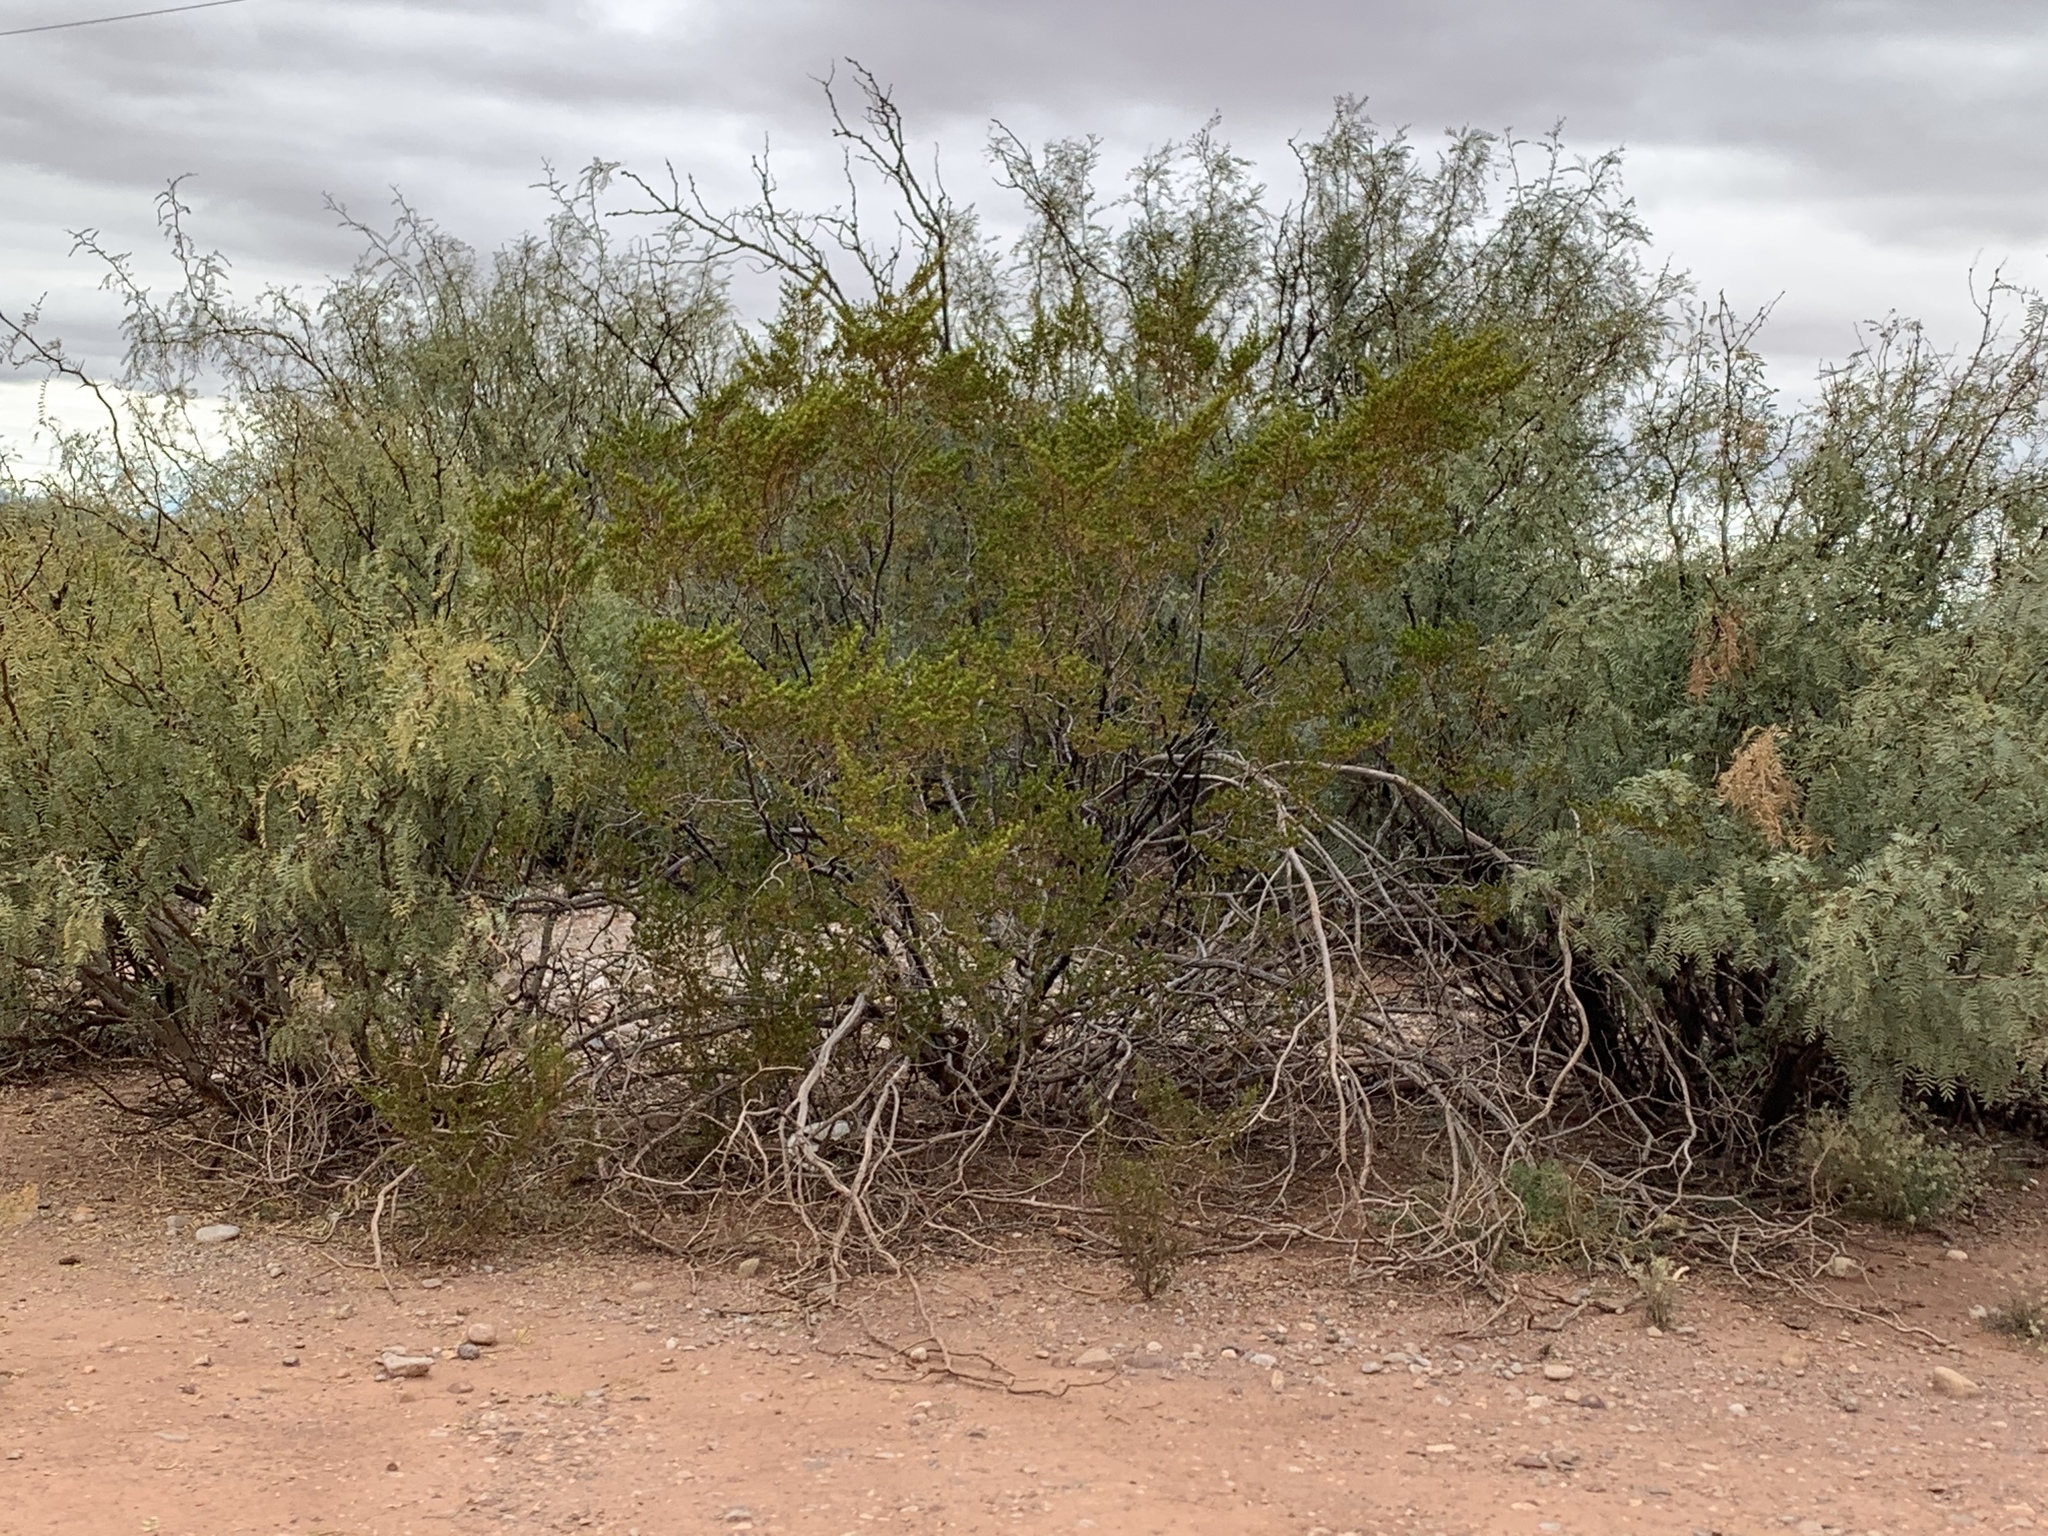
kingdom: Plantae
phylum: Tracheophyta
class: Magnoliopsida
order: Zygophyllales
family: Zygophyllaceae
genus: Larrea
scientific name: Larrea tridentata
